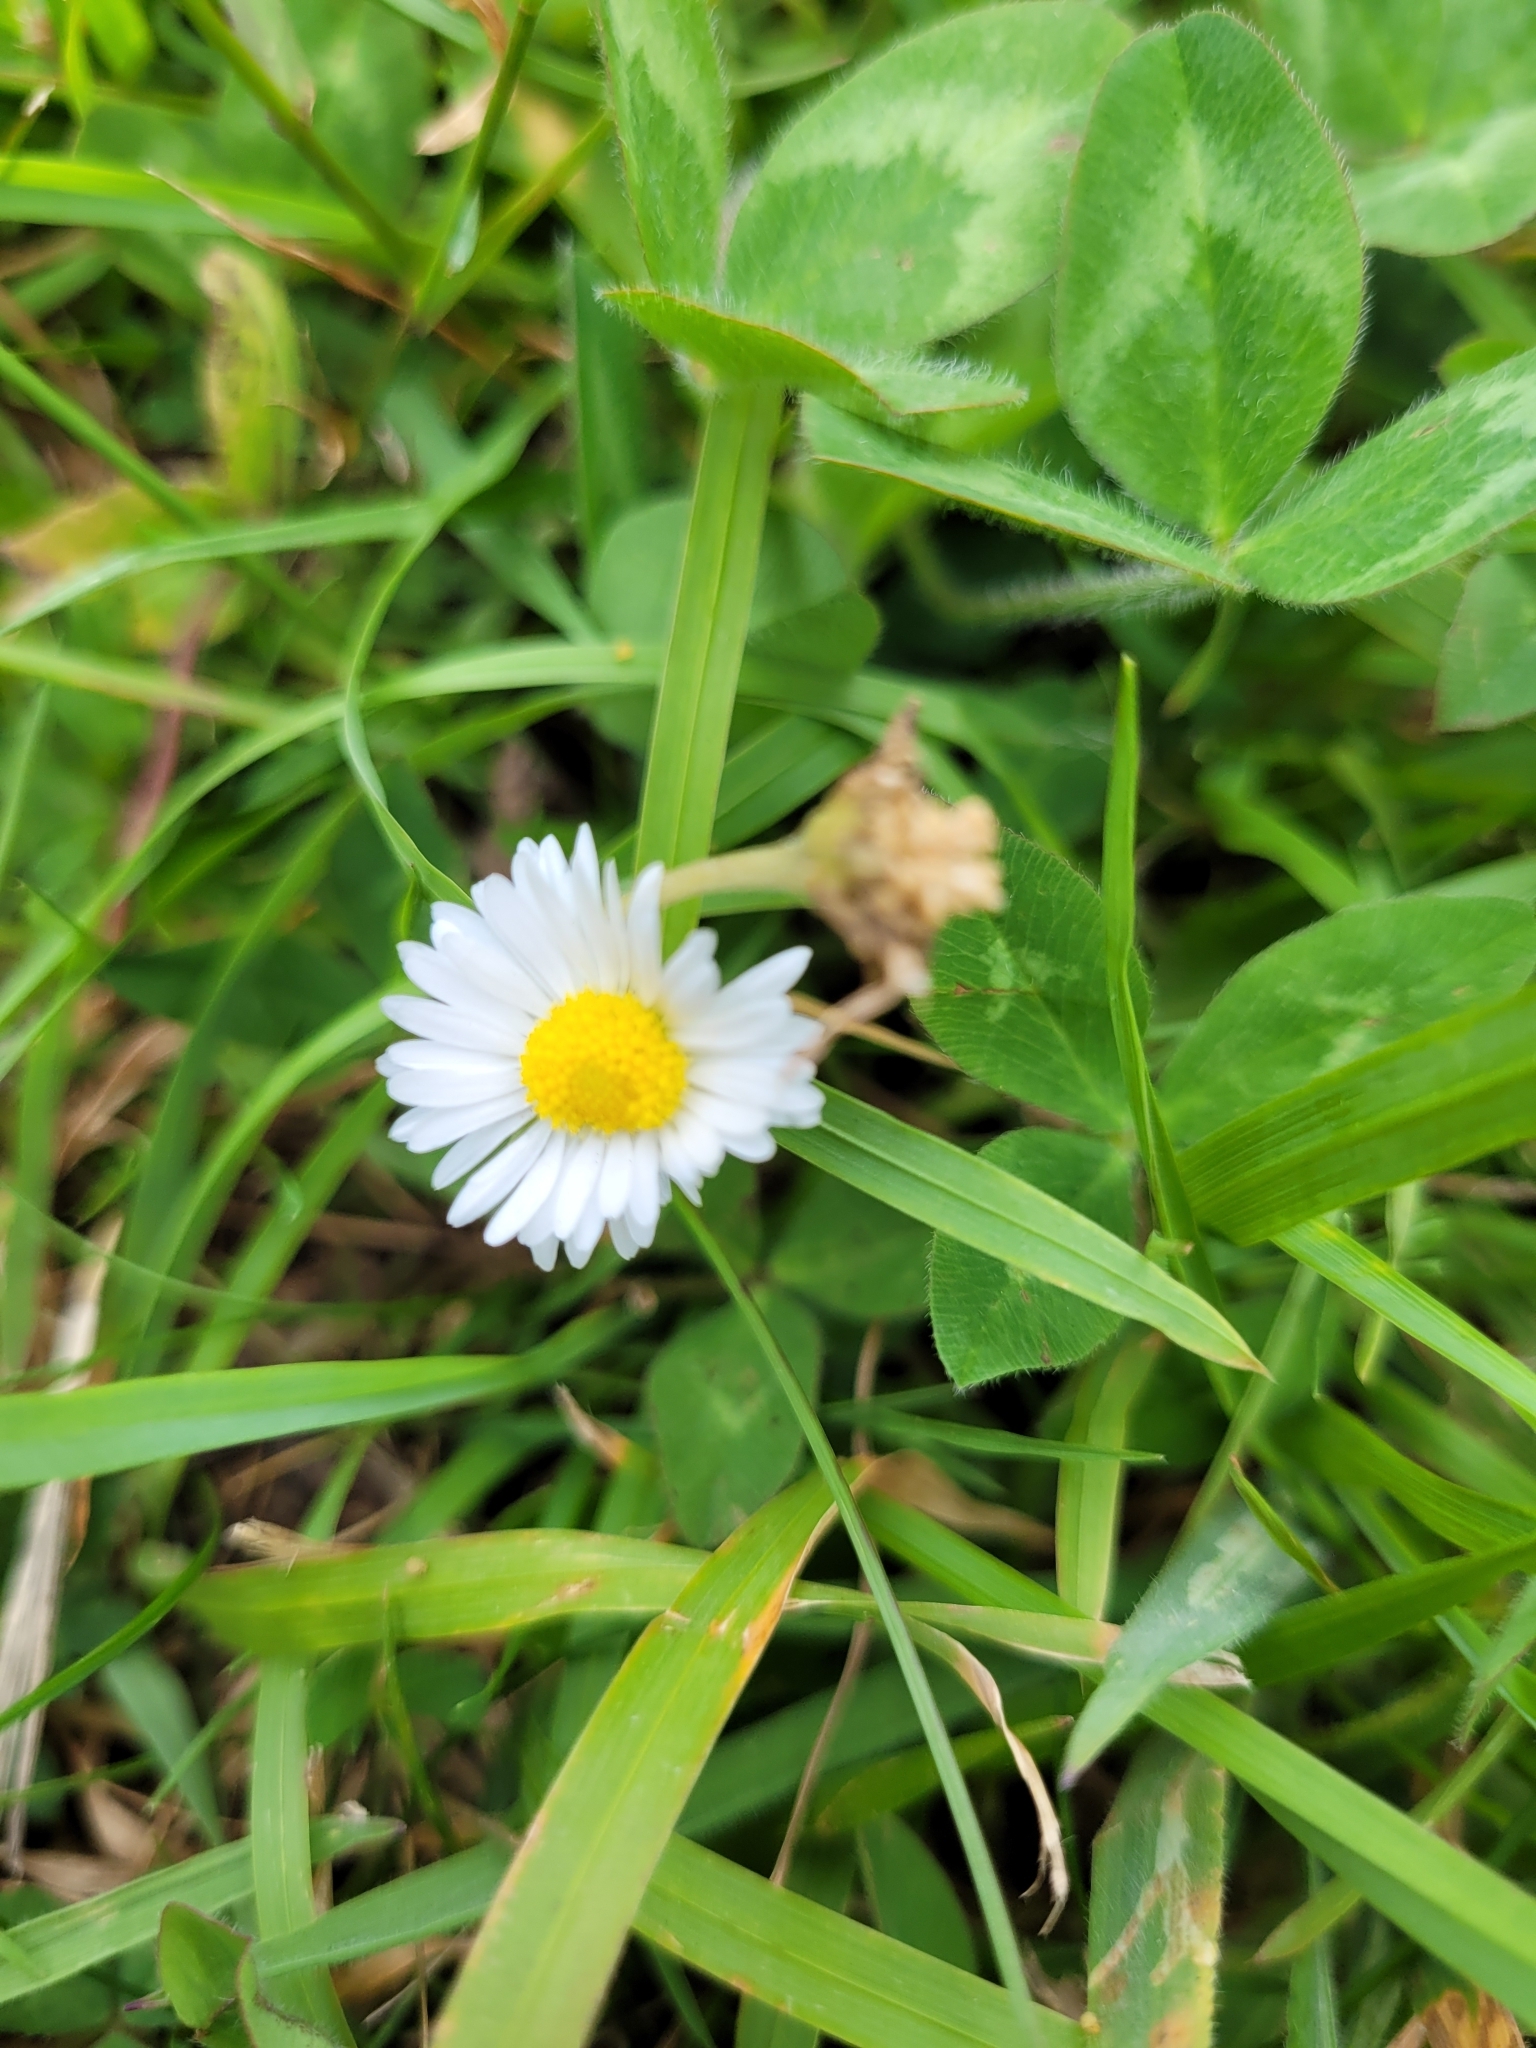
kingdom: Plantae
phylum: Tracheophyta
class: Magnoliopsida
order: Asterales
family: Asteraceae
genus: Bellis
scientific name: Bellis perennis
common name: Lawndaisy
